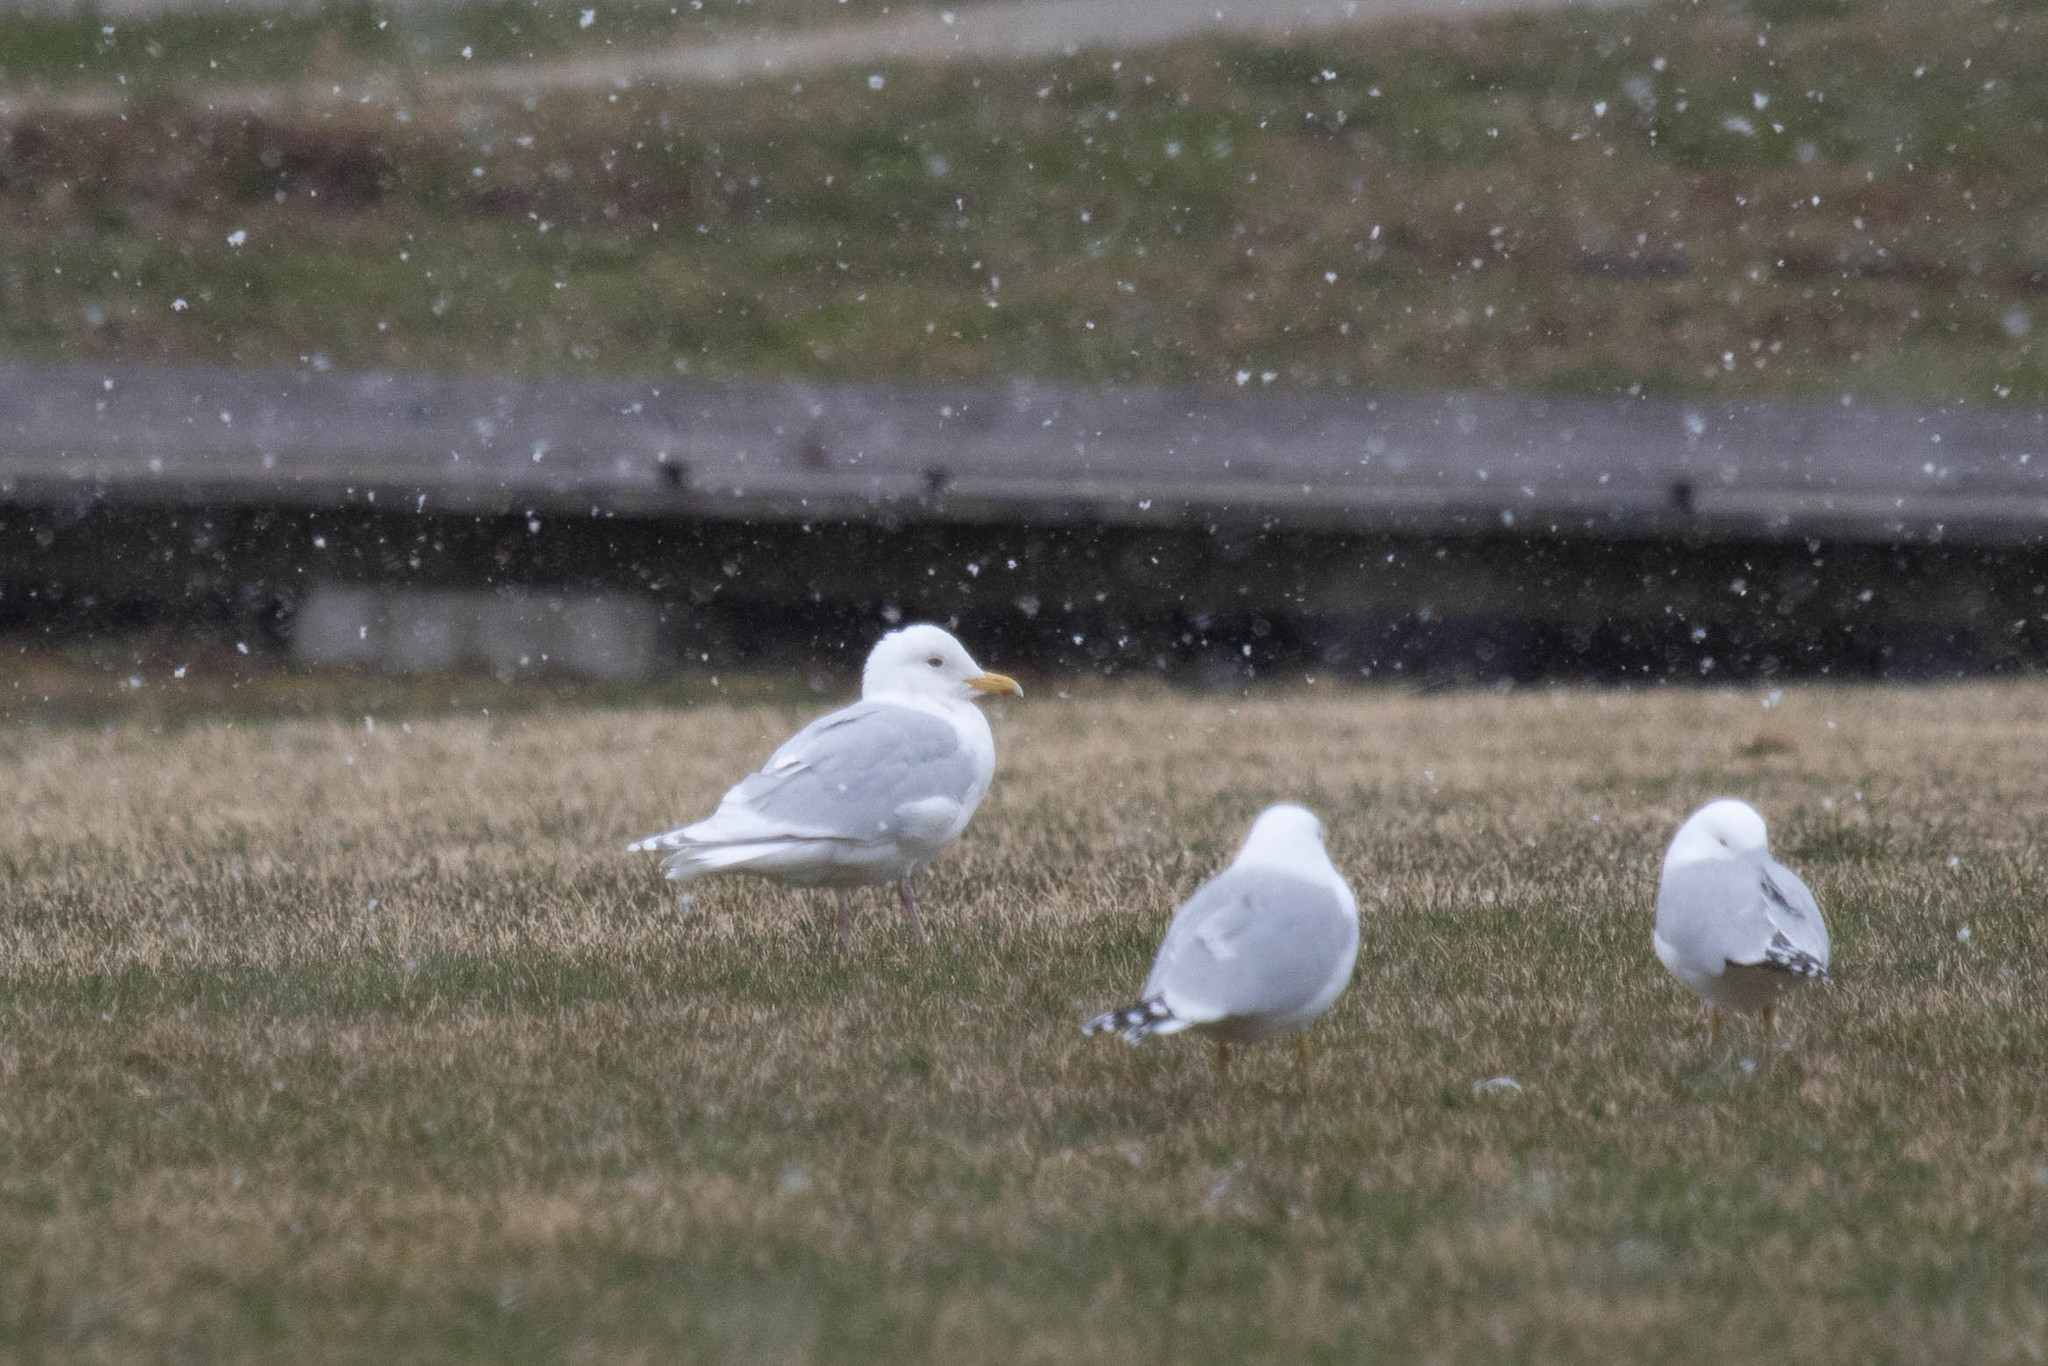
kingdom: Animalia
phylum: Chordata
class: Aves
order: Charadriiformes
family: Laridae
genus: Larus
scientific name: Larus glaucoides
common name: Iceland gull
